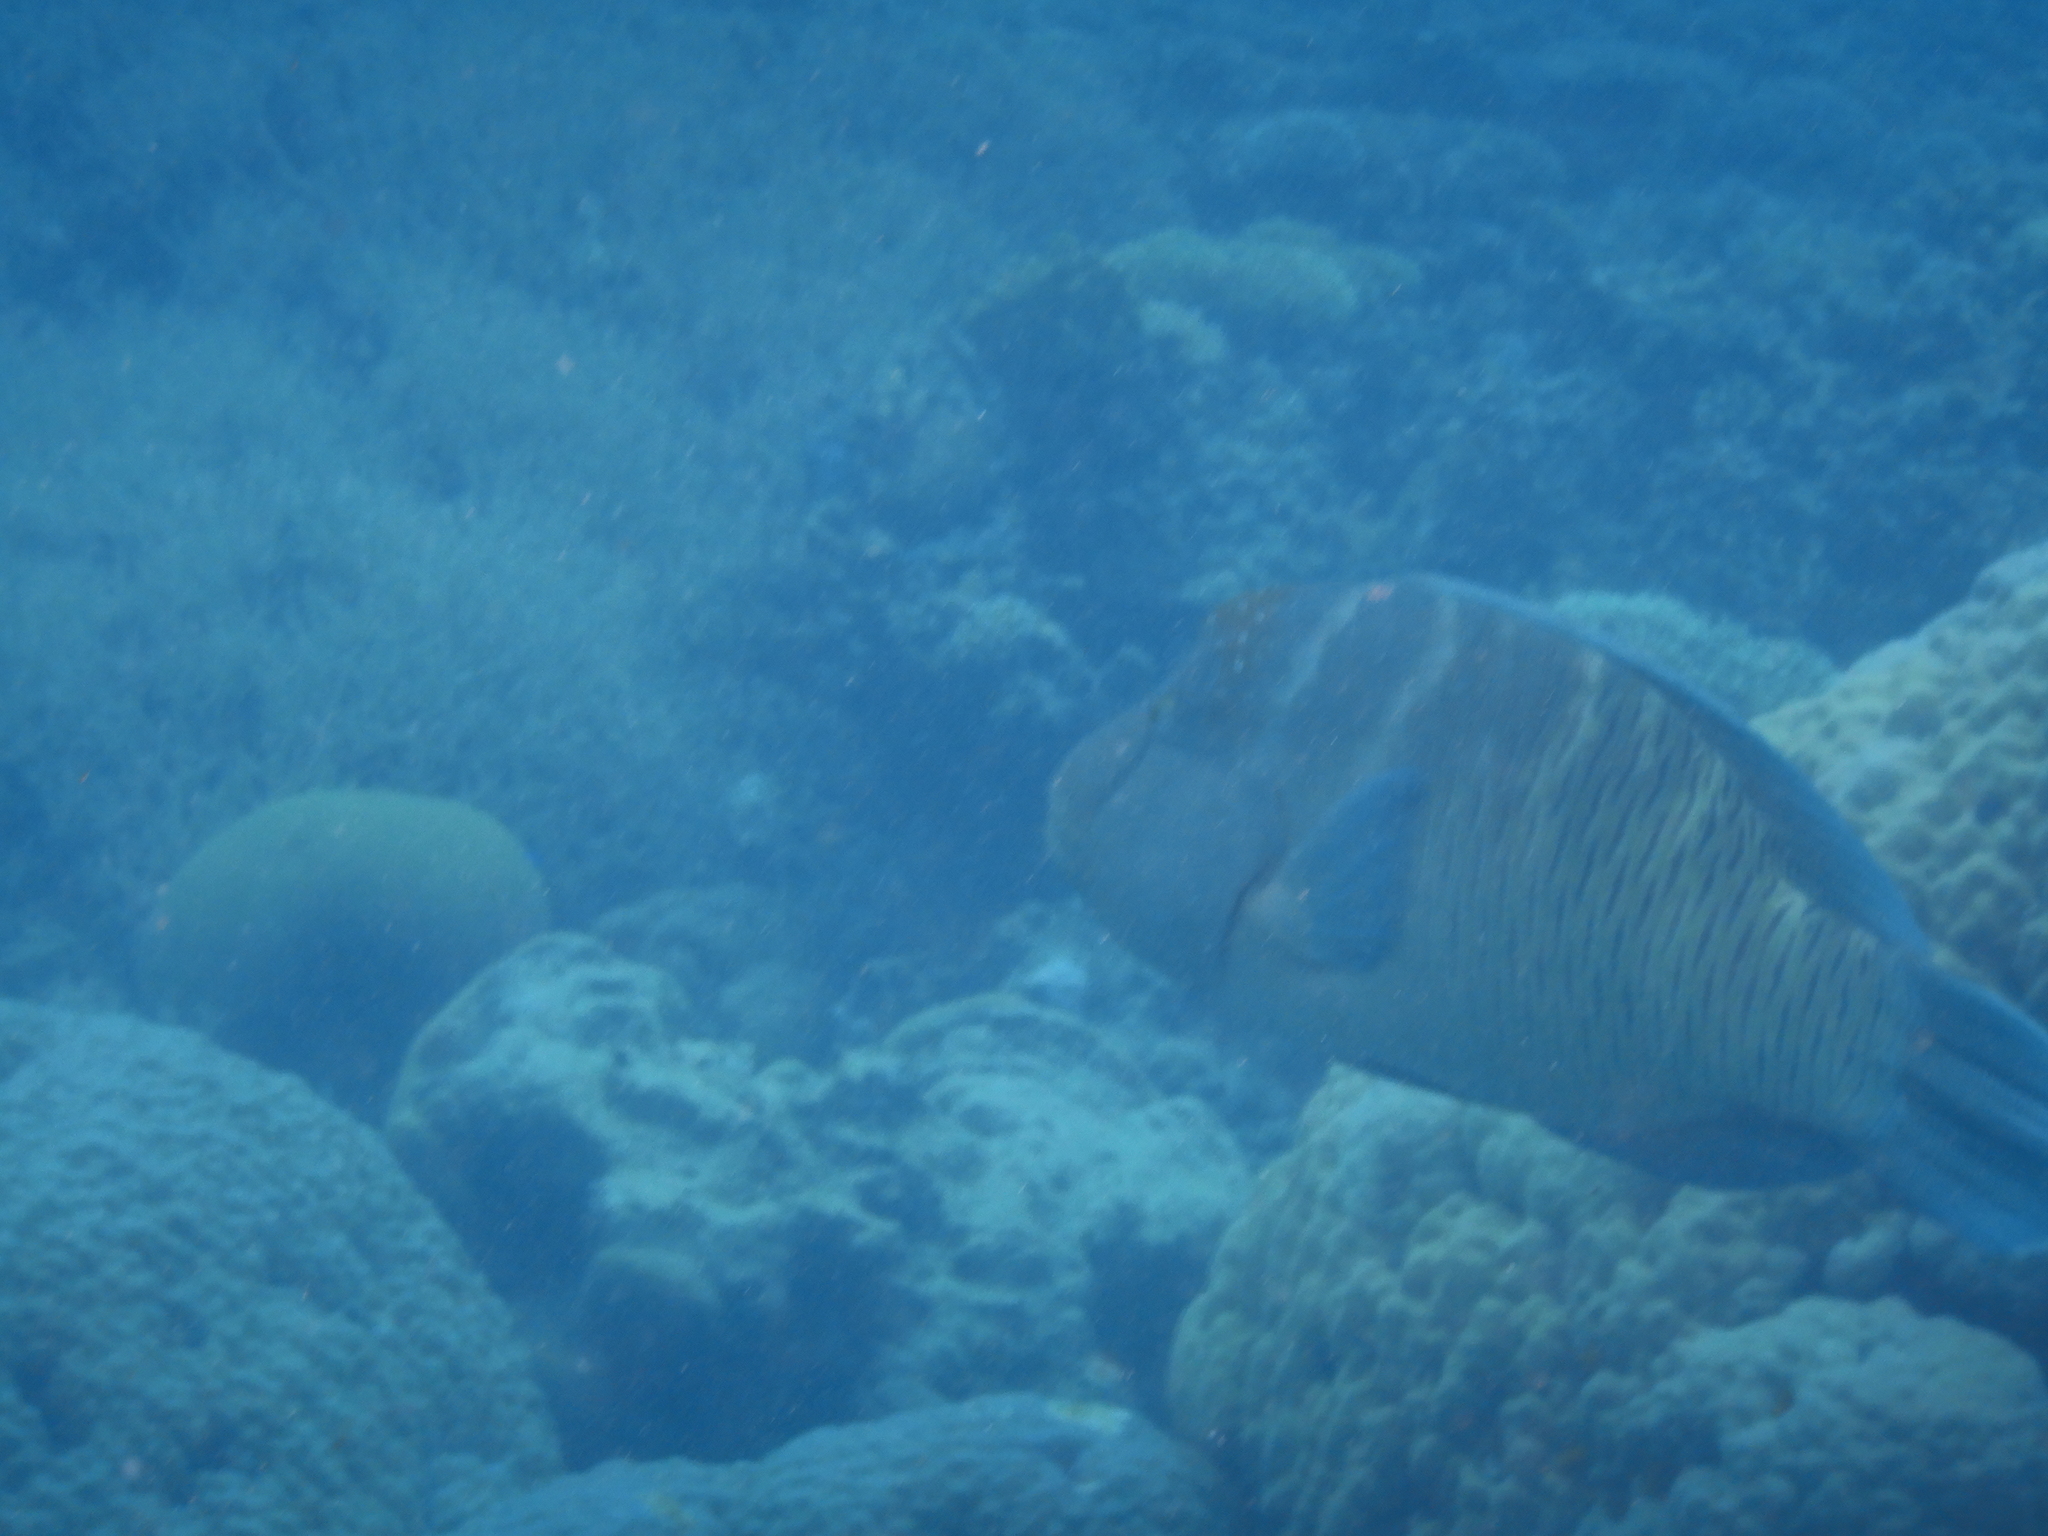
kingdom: Animalia
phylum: Chordata
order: Perciformes
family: Labridae
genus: Cheilinus
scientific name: Cheilinus undulatus
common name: Humphead wrasse
